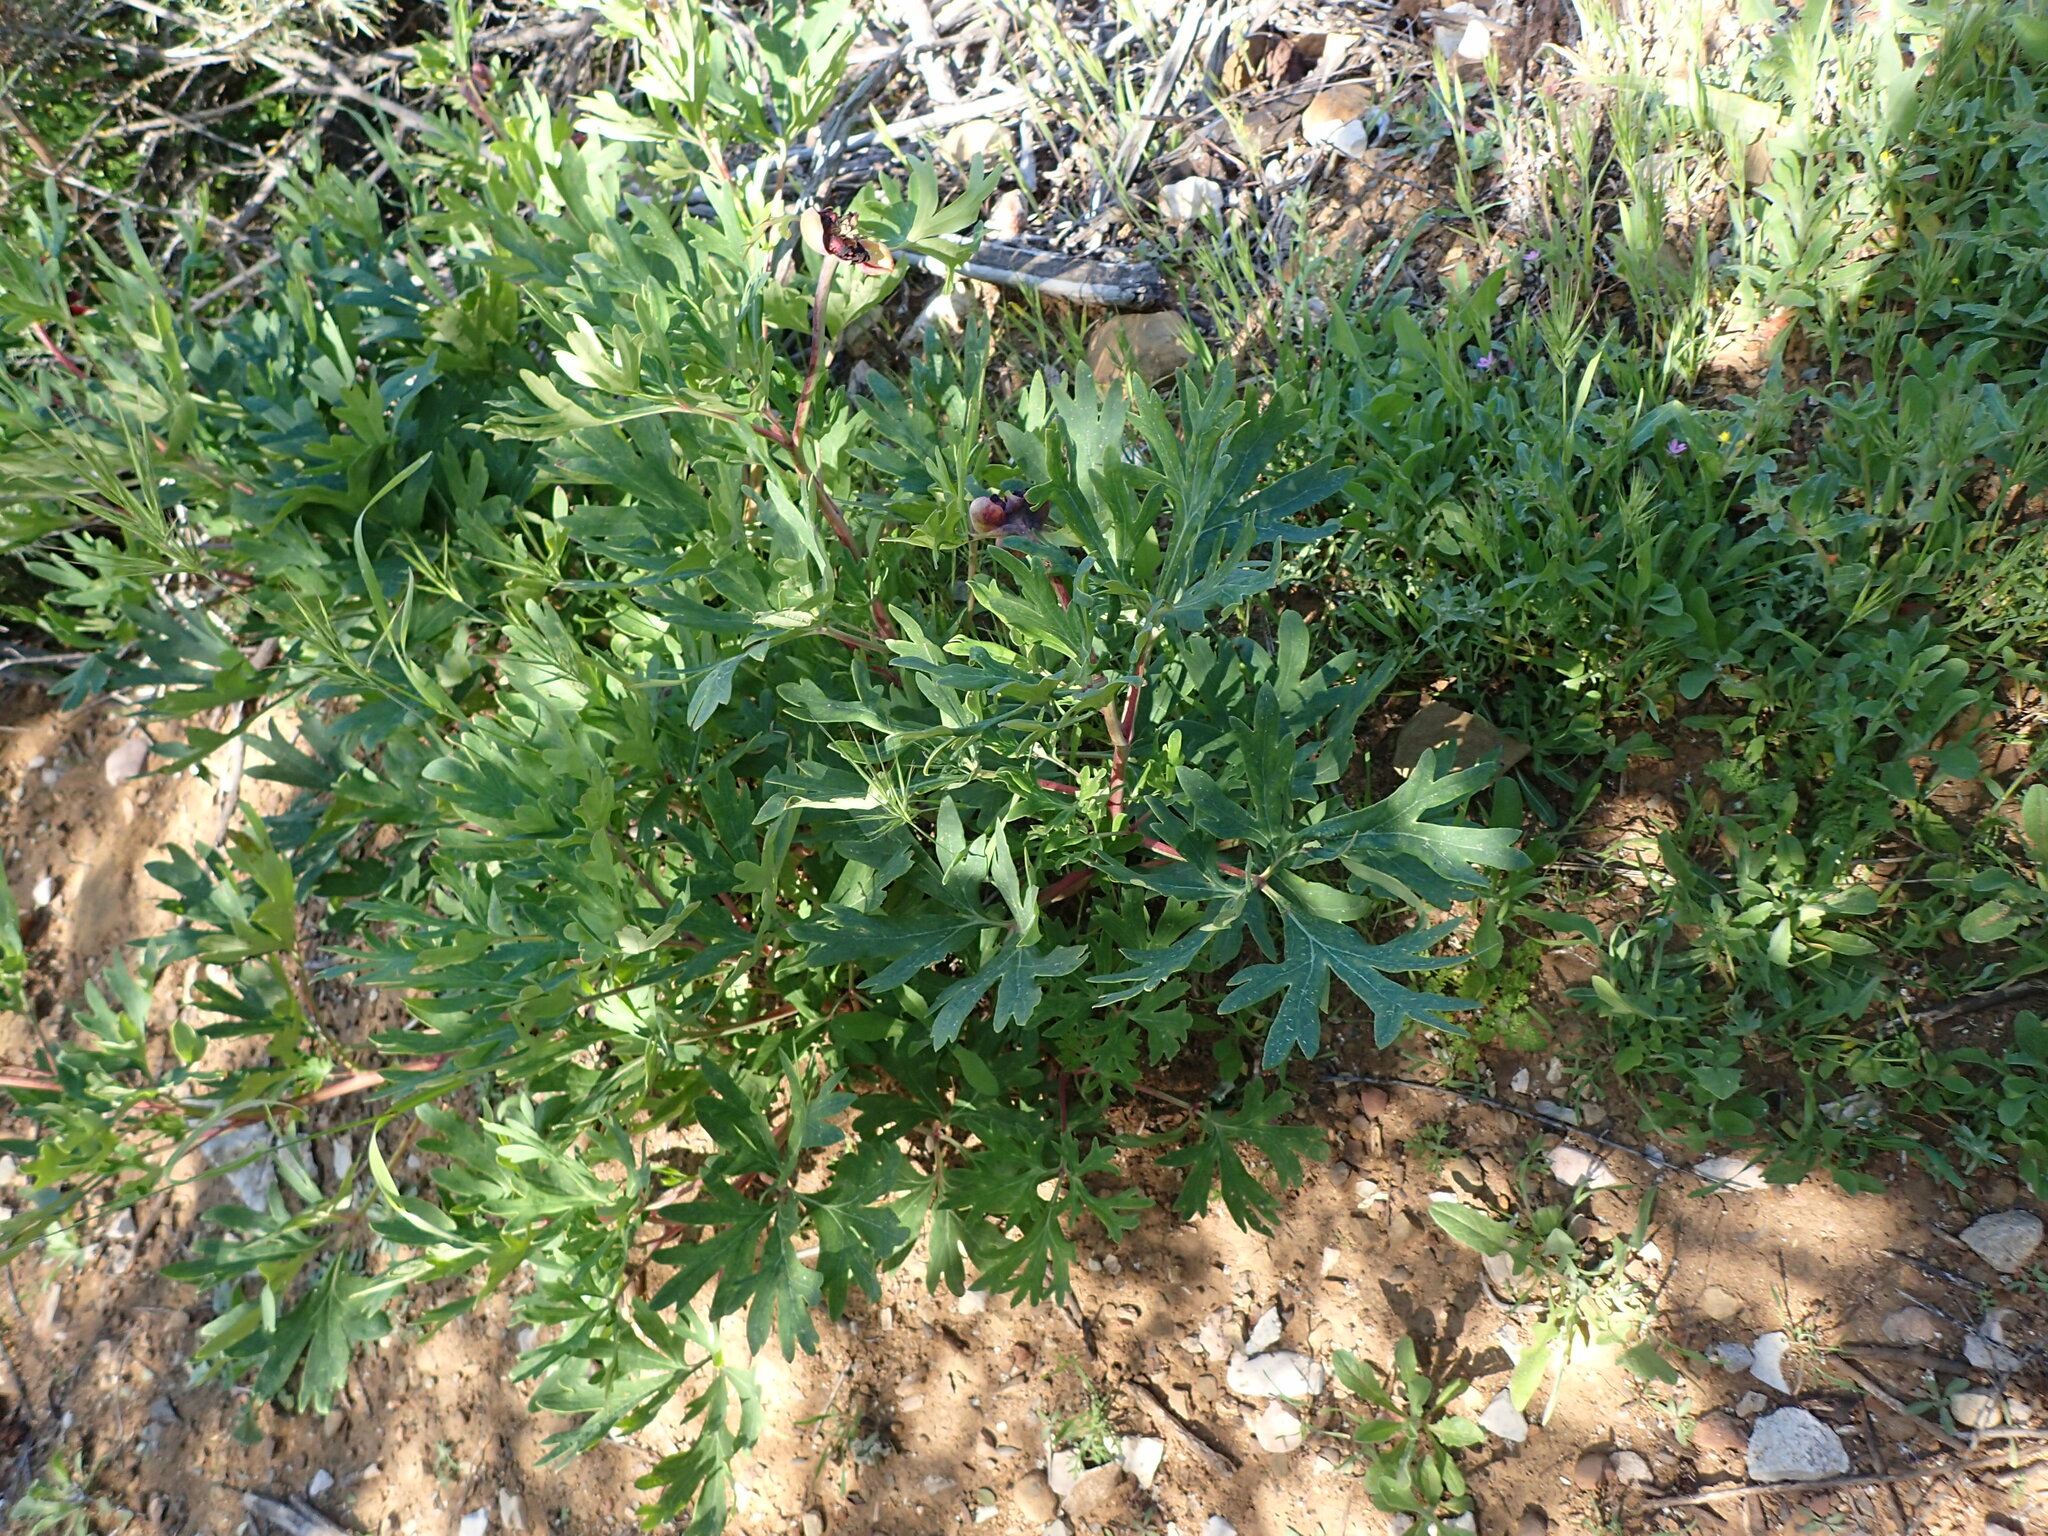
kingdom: Plantae
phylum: Tracheophyta
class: Magnoliopsida
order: Saxifragales
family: Paeoniaceae
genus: Paeonia
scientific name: Paeonia californica
